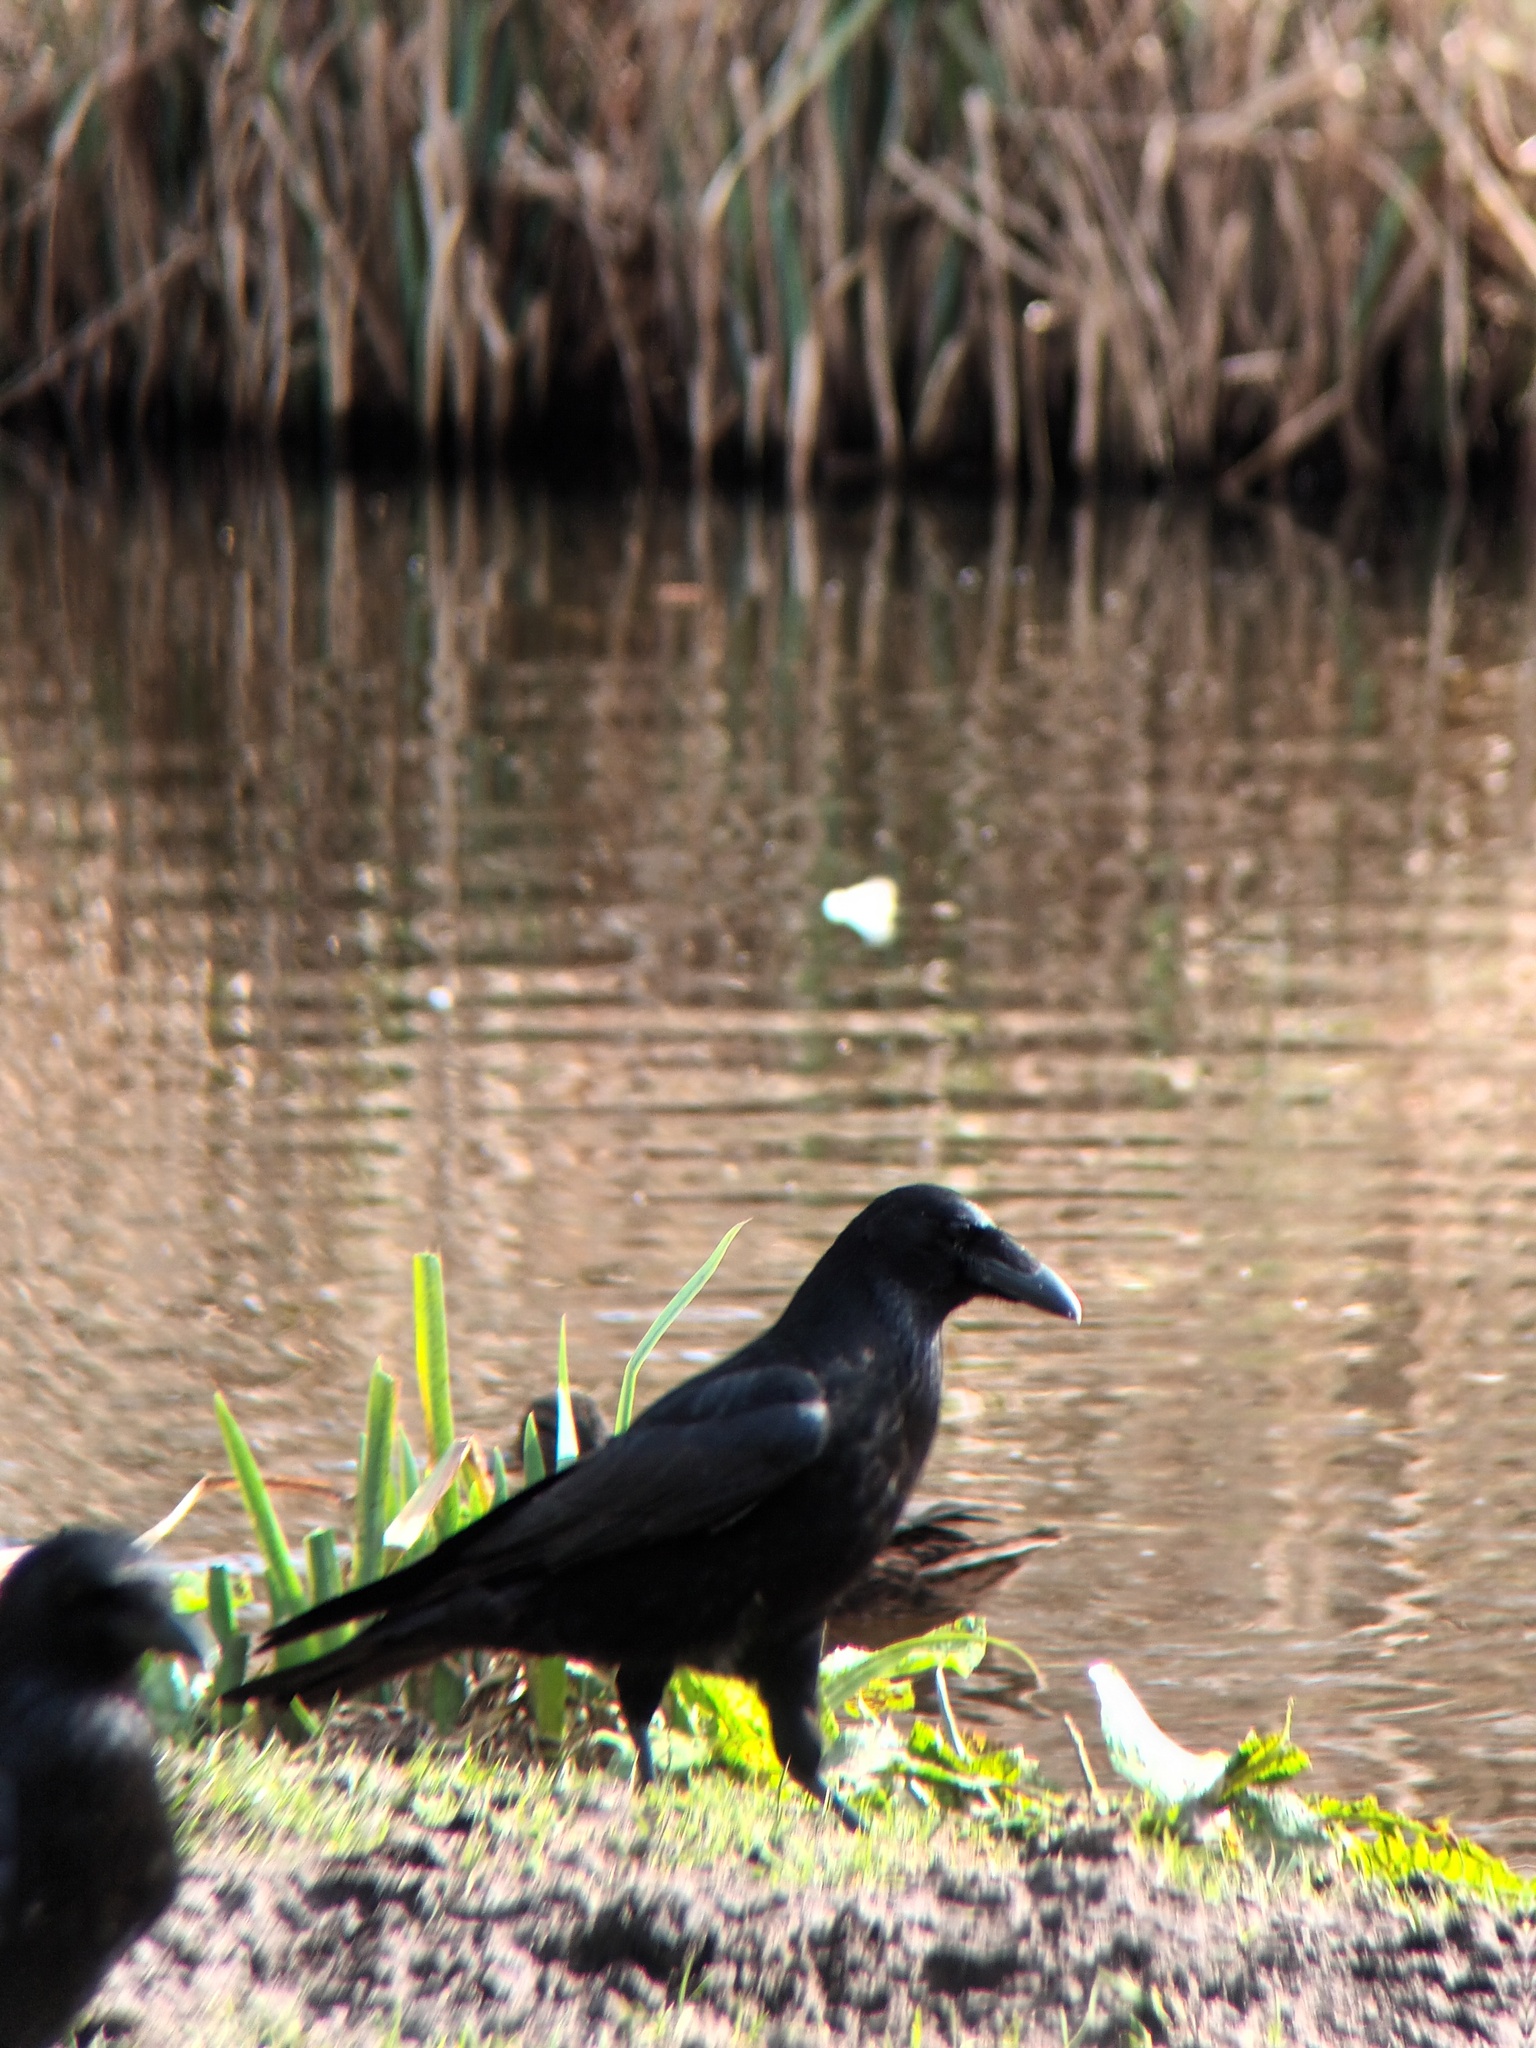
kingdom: Animalia
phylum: Chordata
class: Aves
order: Passeriformes
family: Corvidae
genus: Corvus
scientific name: Corvus corone
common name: Carrion crow
